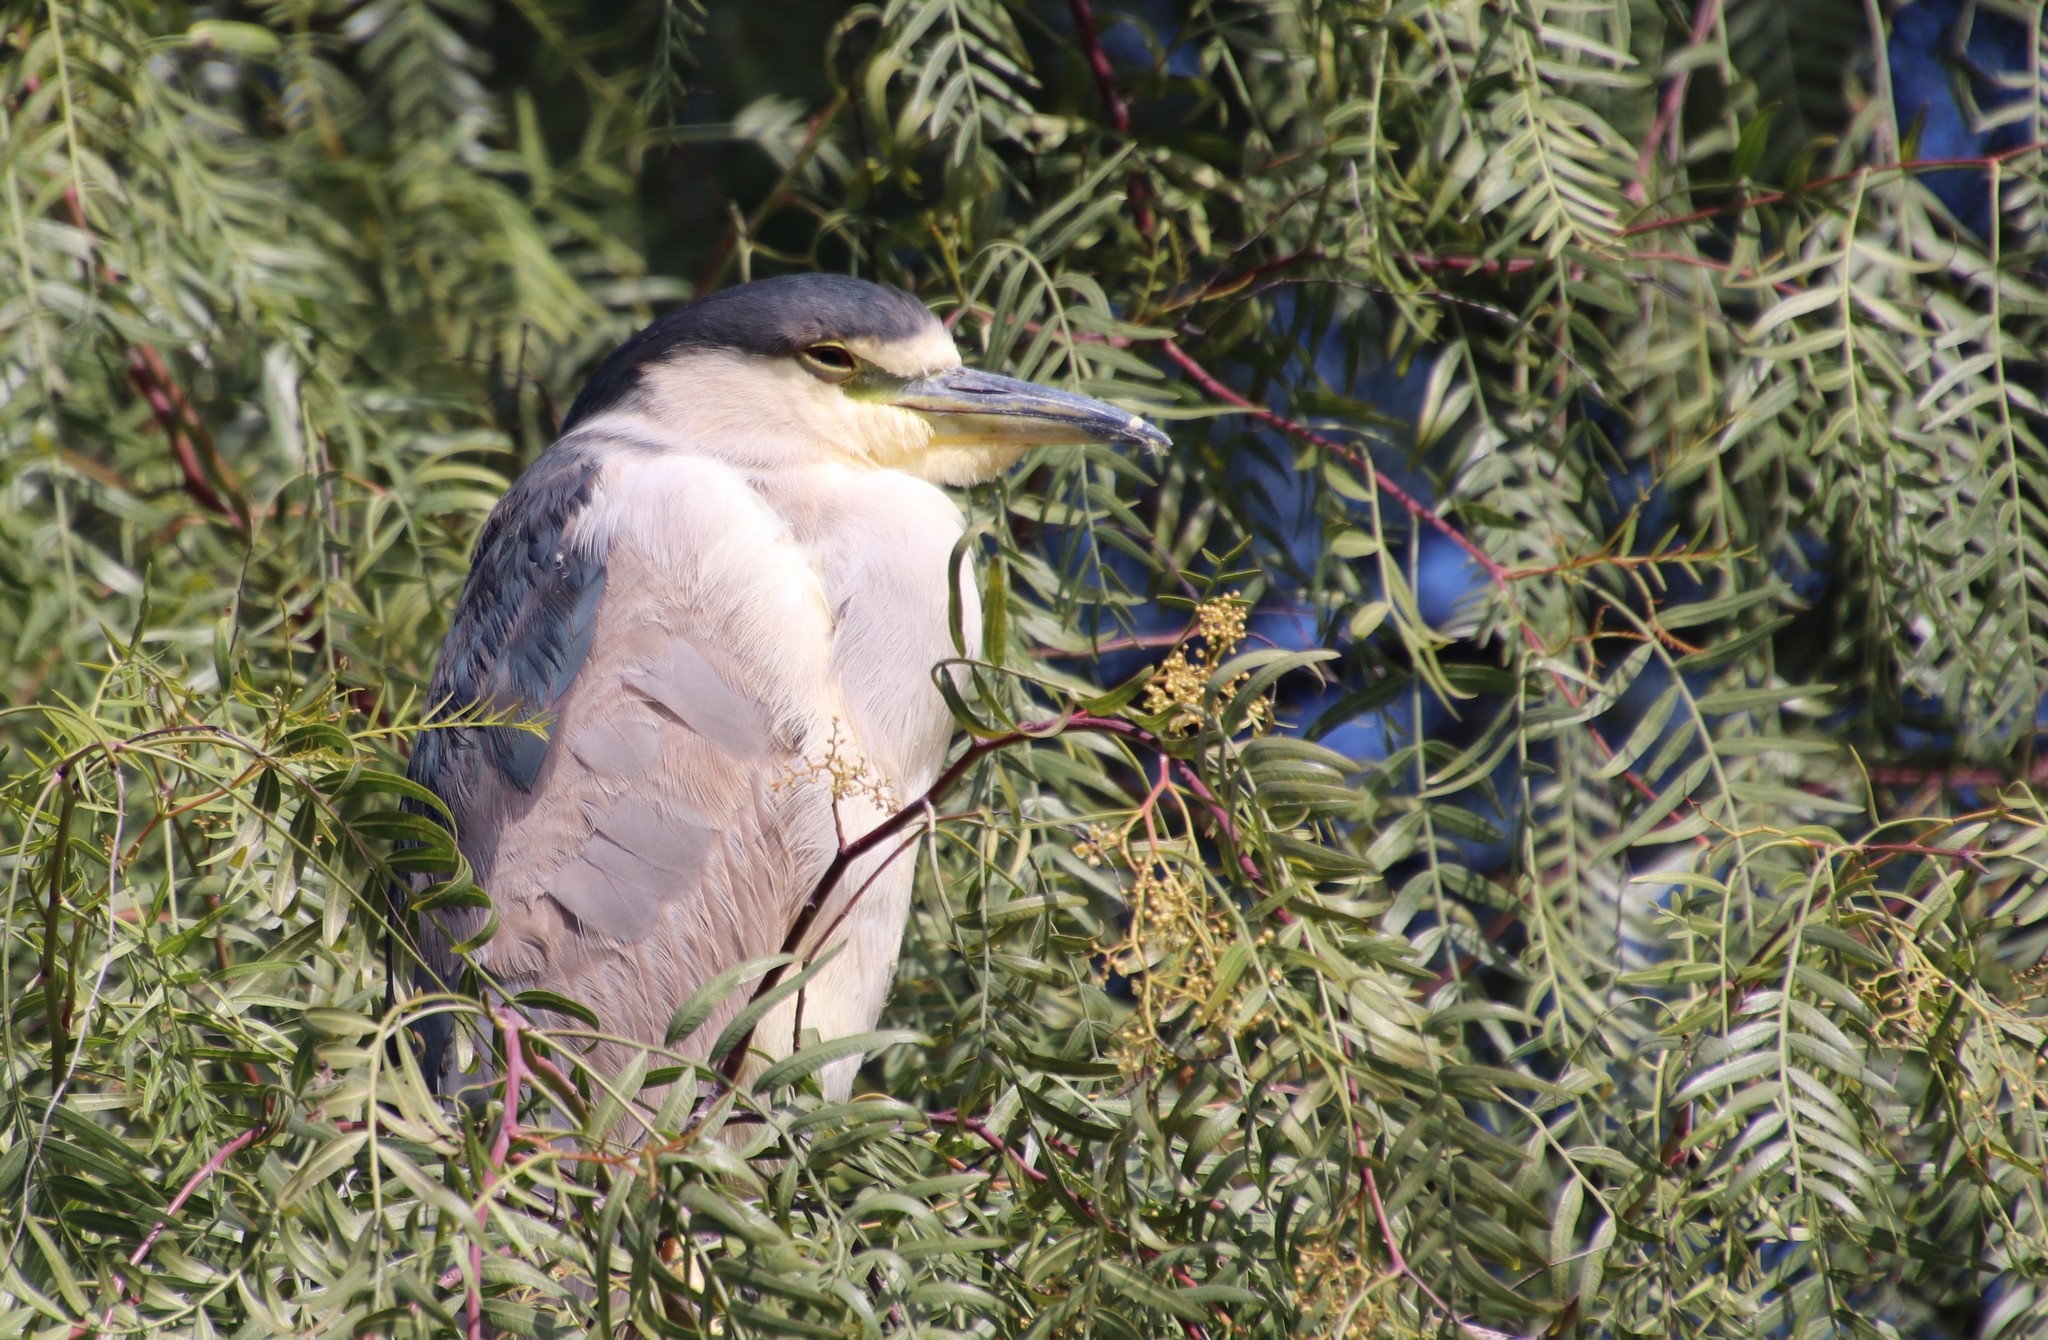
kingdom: Animalia
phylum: Chordata
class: Aves
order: Pelecaniformes
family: Ardeidae
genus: Nycticorax
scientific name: Nycticorax nycticorax
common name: Black-crowned night heron
